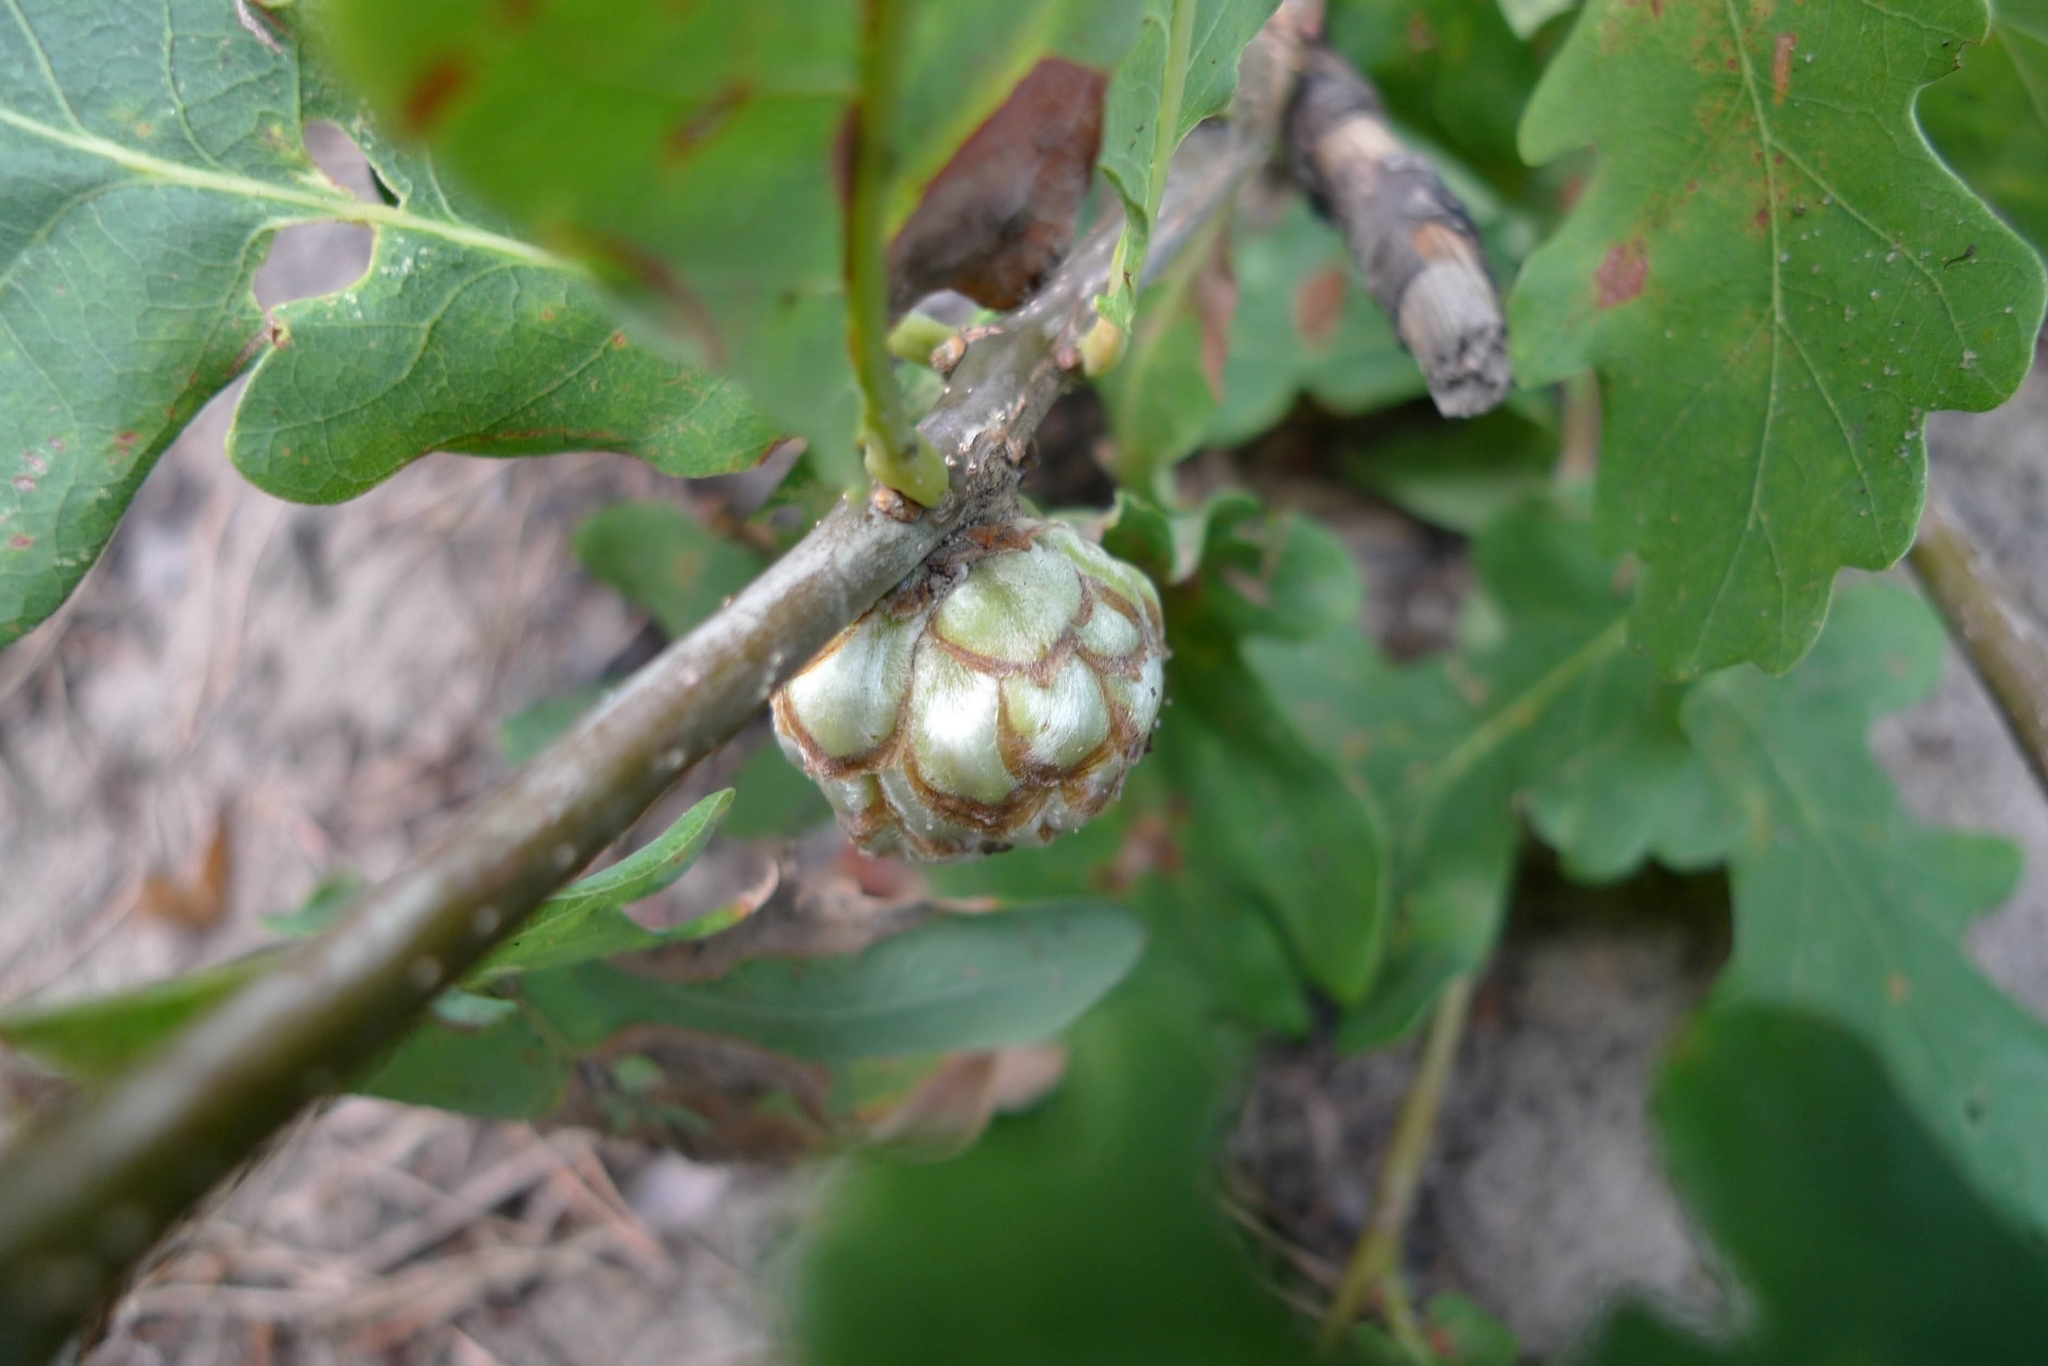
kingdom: Animalia
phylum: Arthropoda
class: Insecta
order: Hymenoptera
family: Cynipidae
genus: Andricus
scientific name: Andricus foecundatrix
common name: Artichoke gall
